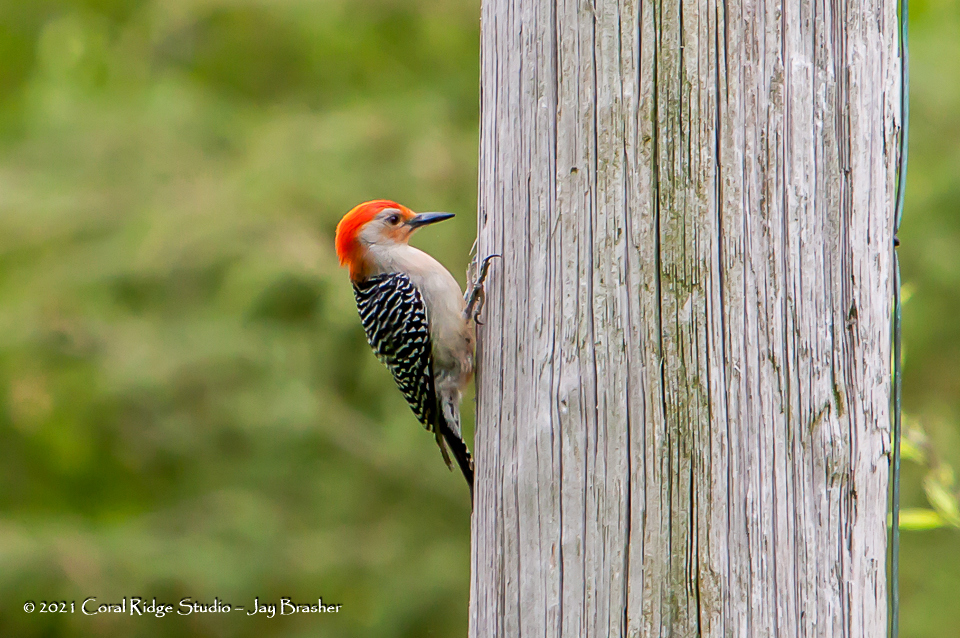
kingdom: Animalia
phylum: Chordata
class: Aves
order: Piciformes
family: Picidae
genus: Melanerpes
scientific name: Melanerpes carolinus
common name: Red-bellied woodpecker
